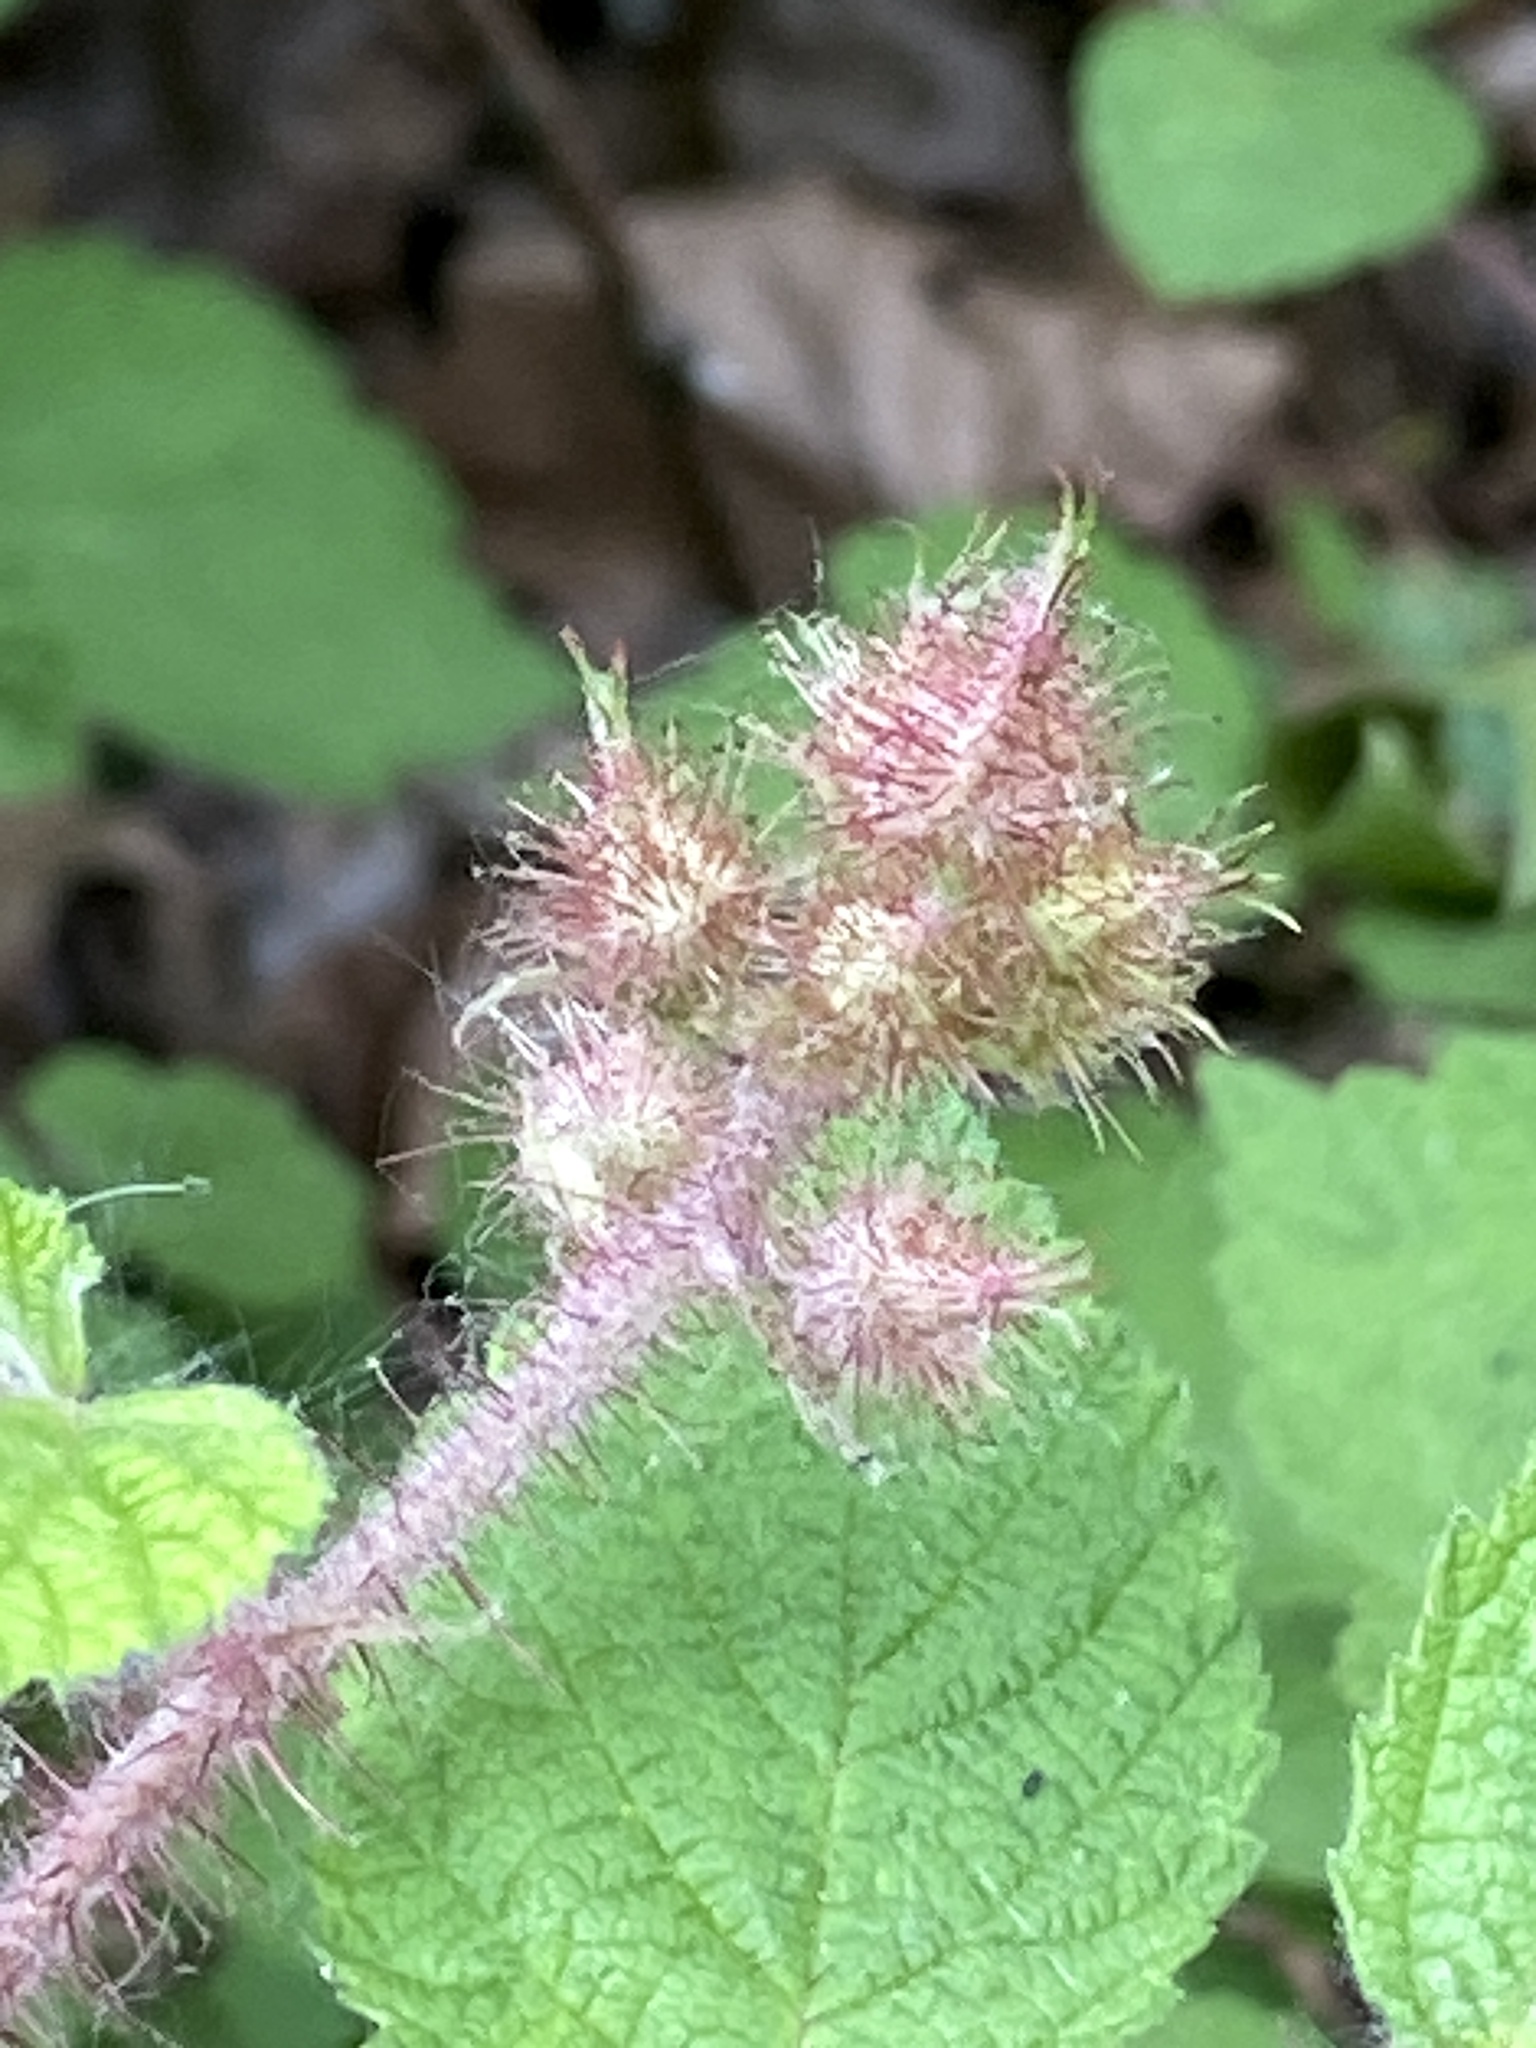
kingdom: Plantae
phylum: Tracheophyta
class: Magnoliopsida
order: Rosales
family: Rosaceae
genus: Rubus
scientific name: Rubus phoenicolasius
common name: Japanese wineberry
